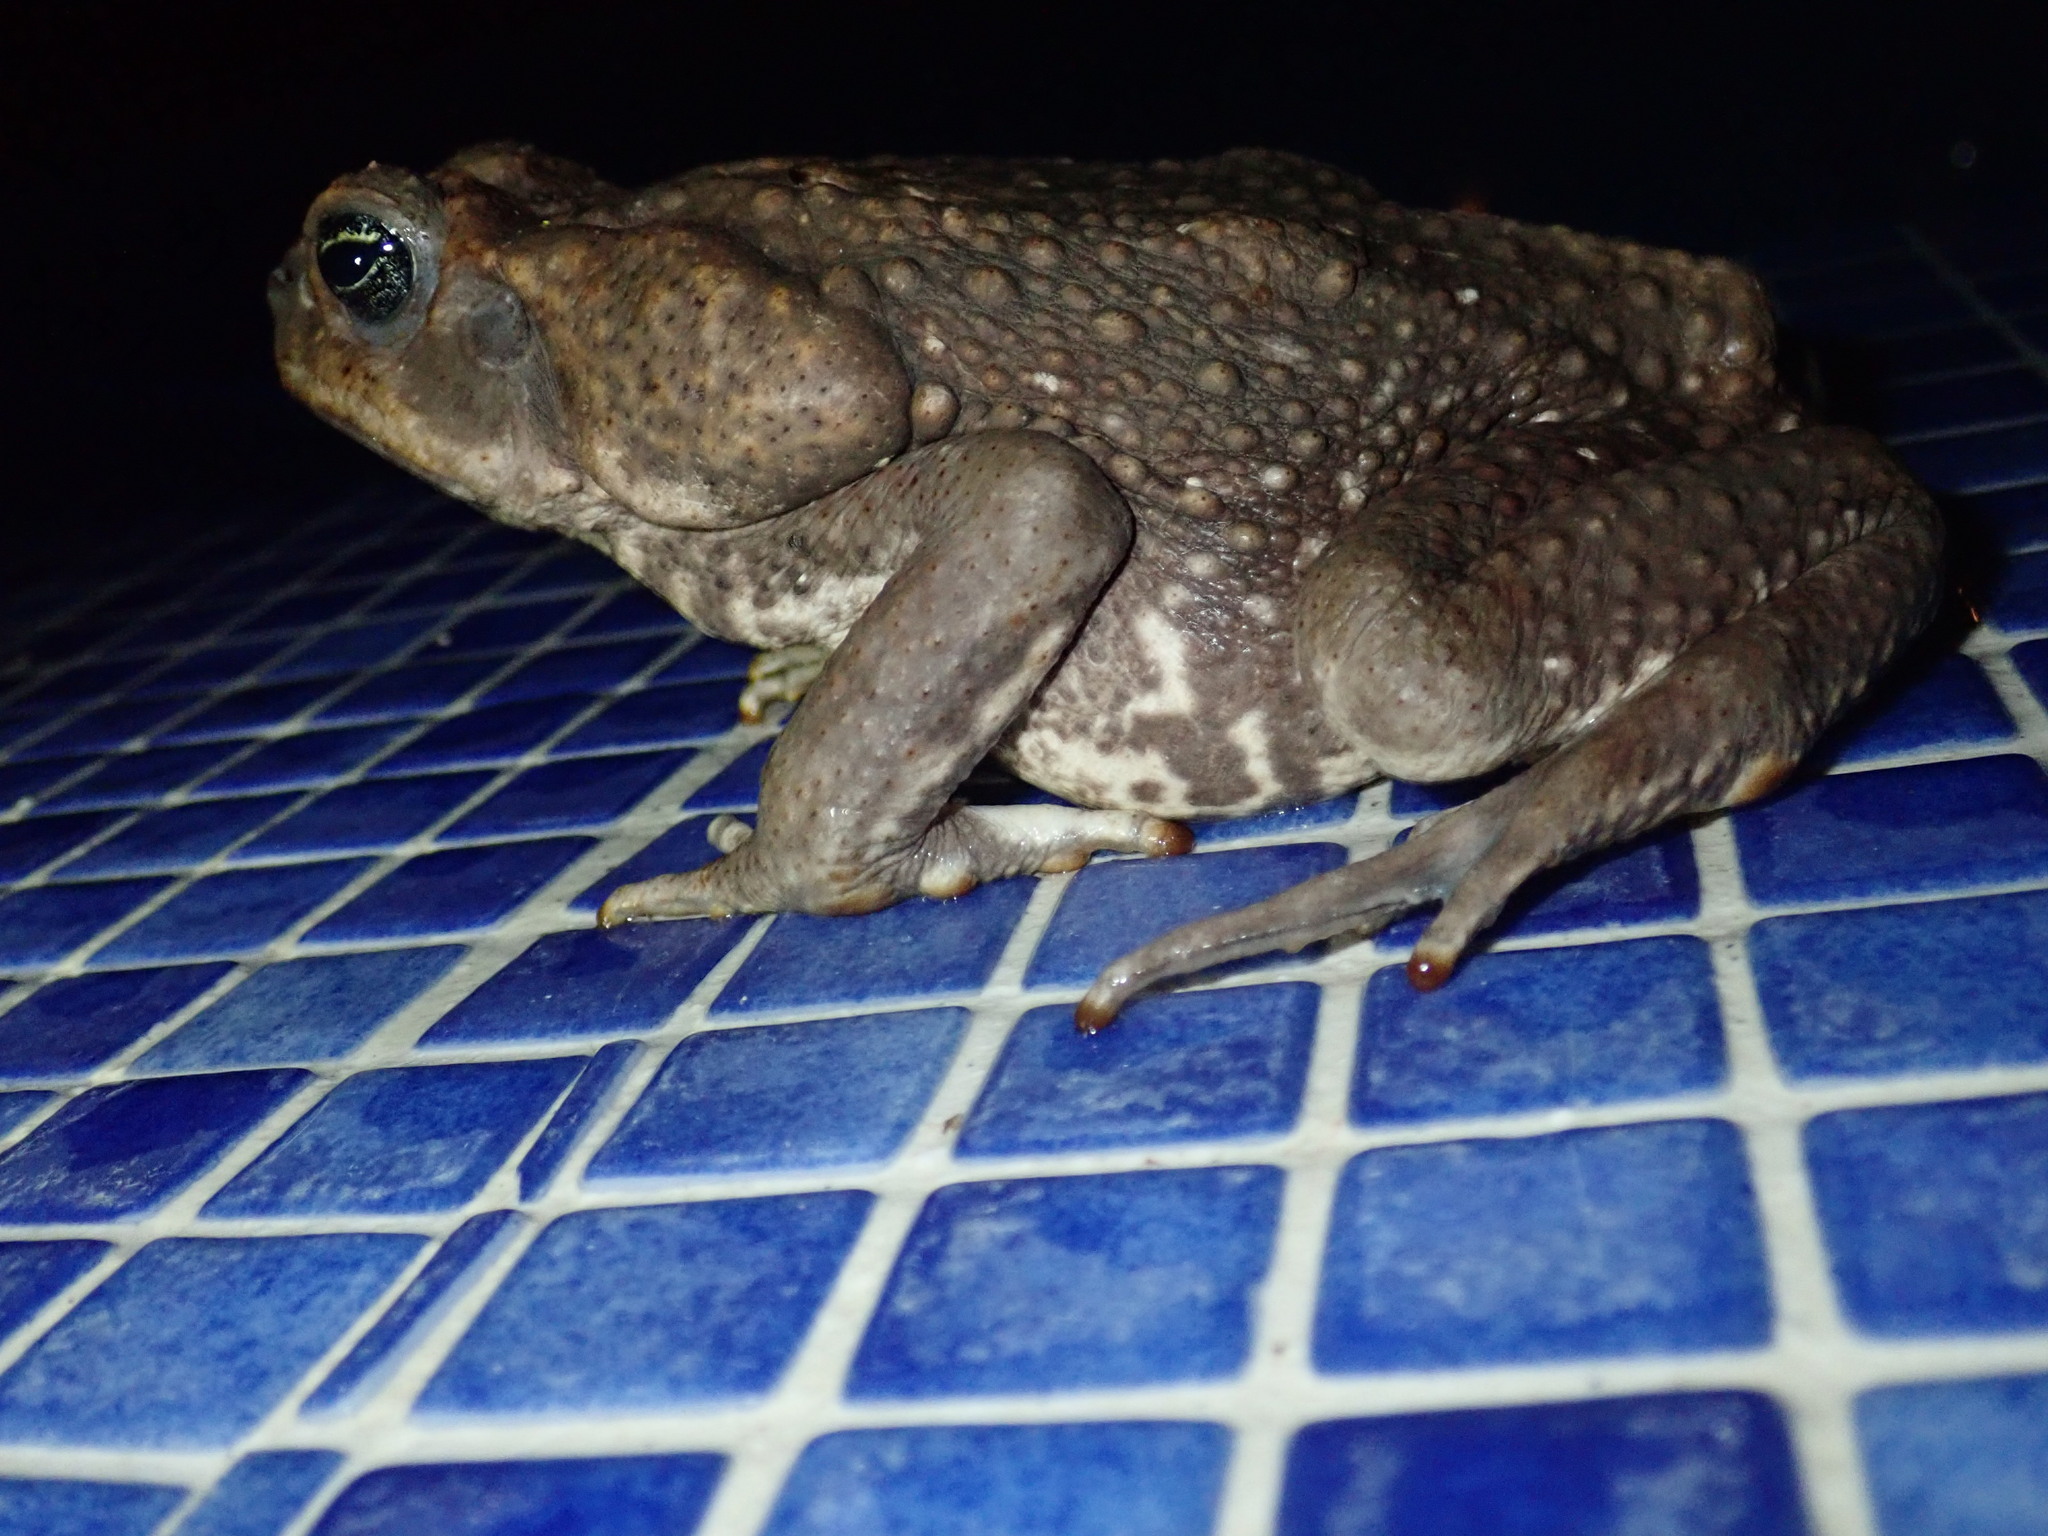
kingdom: Animalia
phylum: Chordata
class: Amphibia
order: Anura
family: Bufonidae
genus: Rhinella
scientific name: Rhinella horribilis
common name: Mesoamerican cane toad
